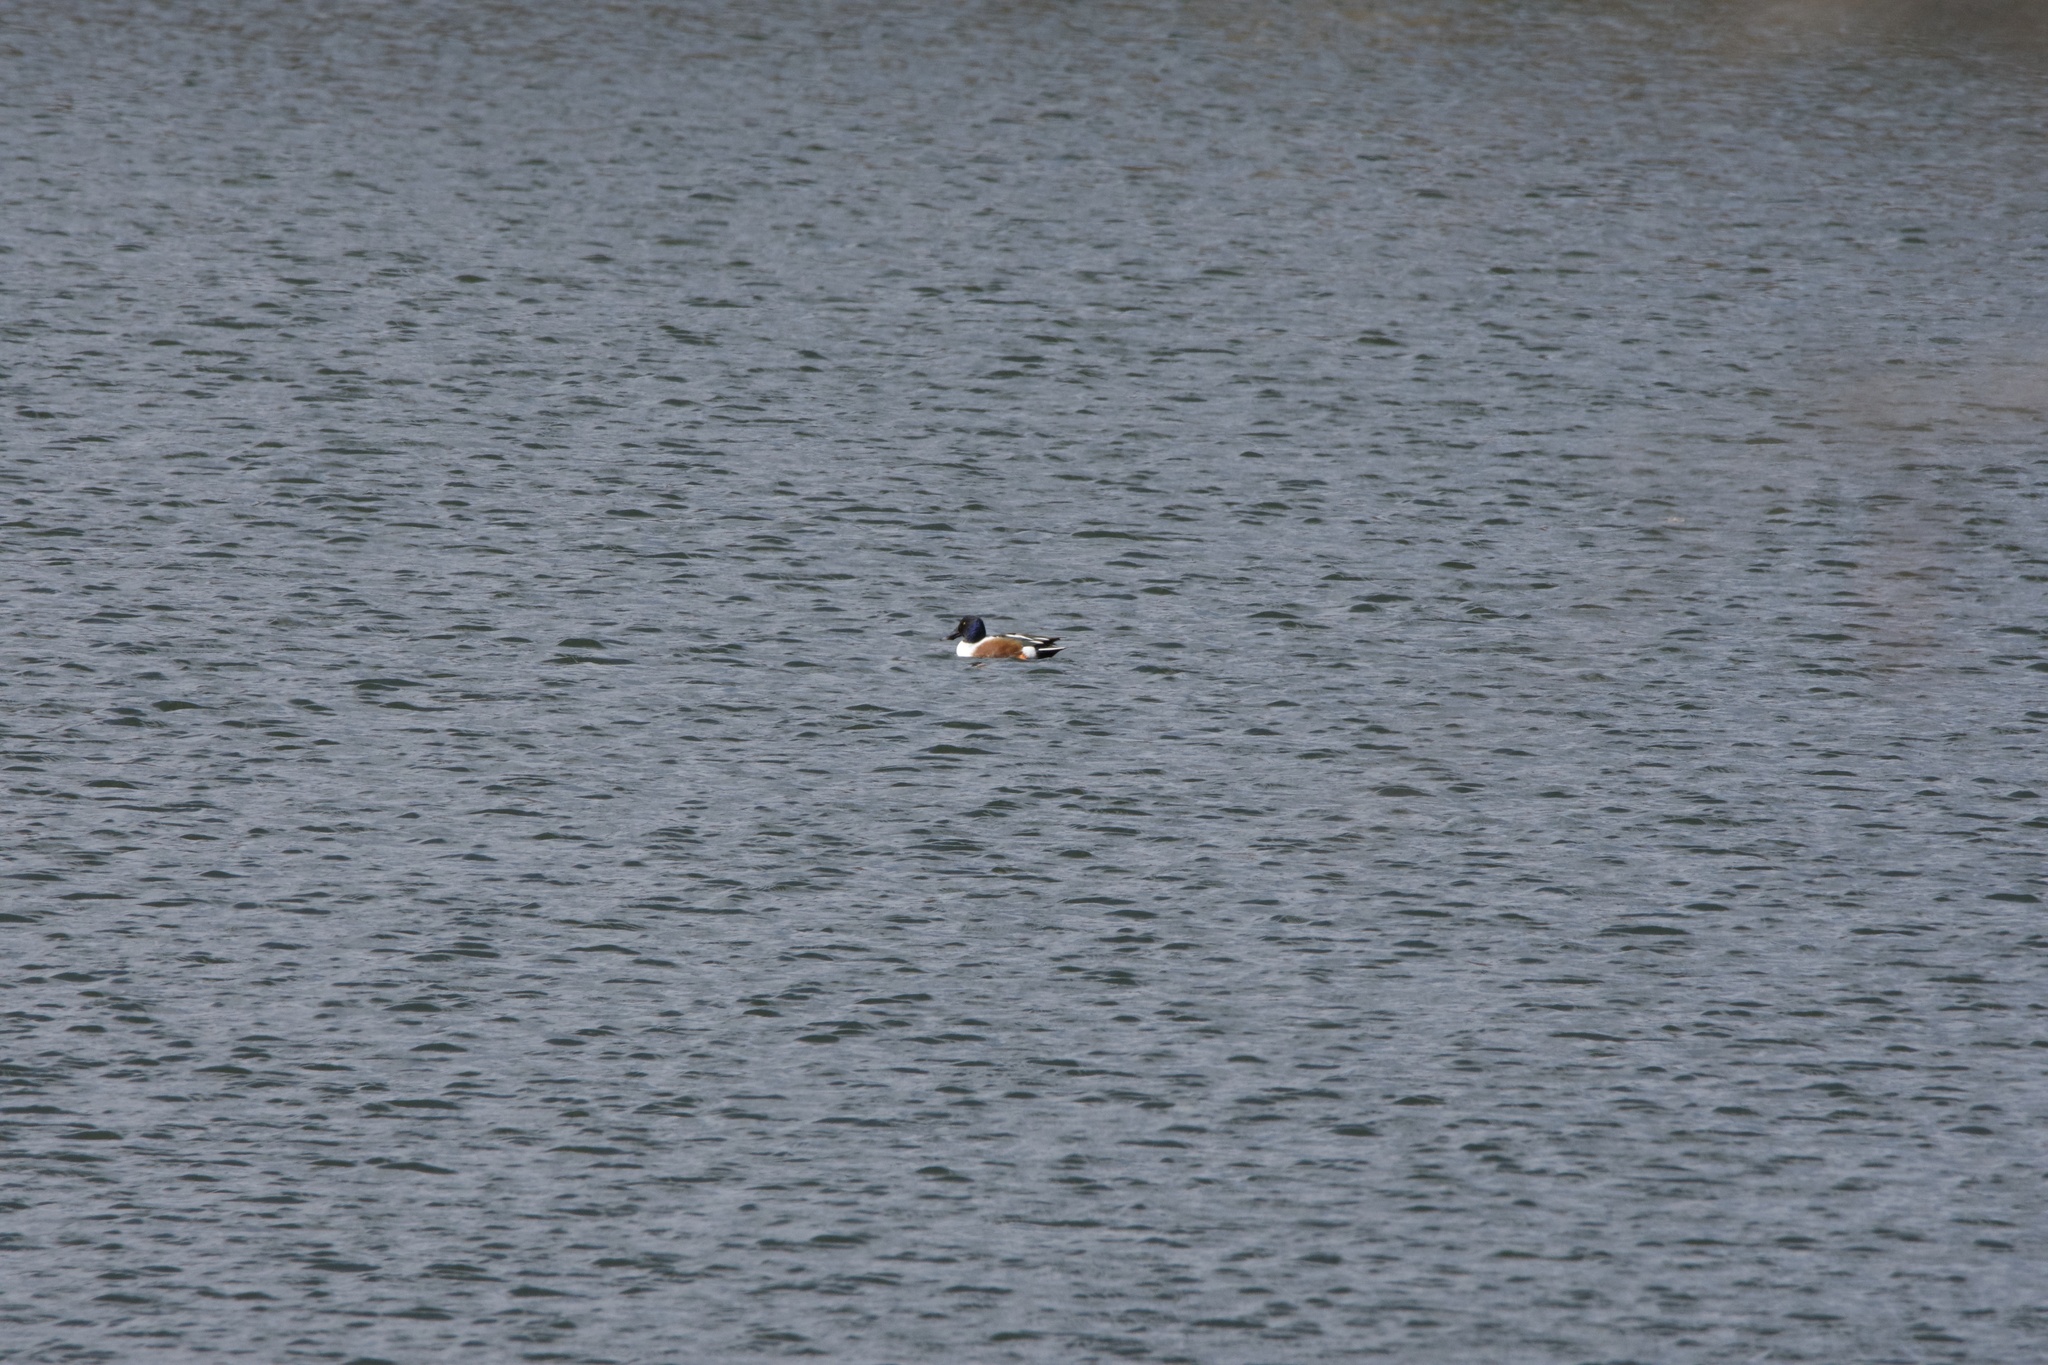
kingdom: Animalia
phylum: Chordata
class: Aves
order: Anseriformes
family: Anatidae
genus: Spatula
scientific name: Spatula clypeata
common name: Northern shoveler
